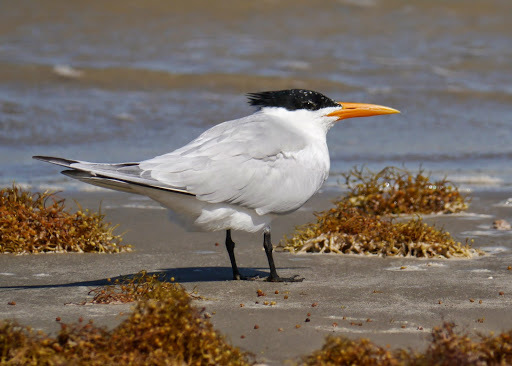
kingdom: Animalia
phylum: Chordata
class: Aves
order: Charadriiformes
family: Laridae
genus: Thalasseus
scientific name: Thalasseus maximus
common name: Royal tern
